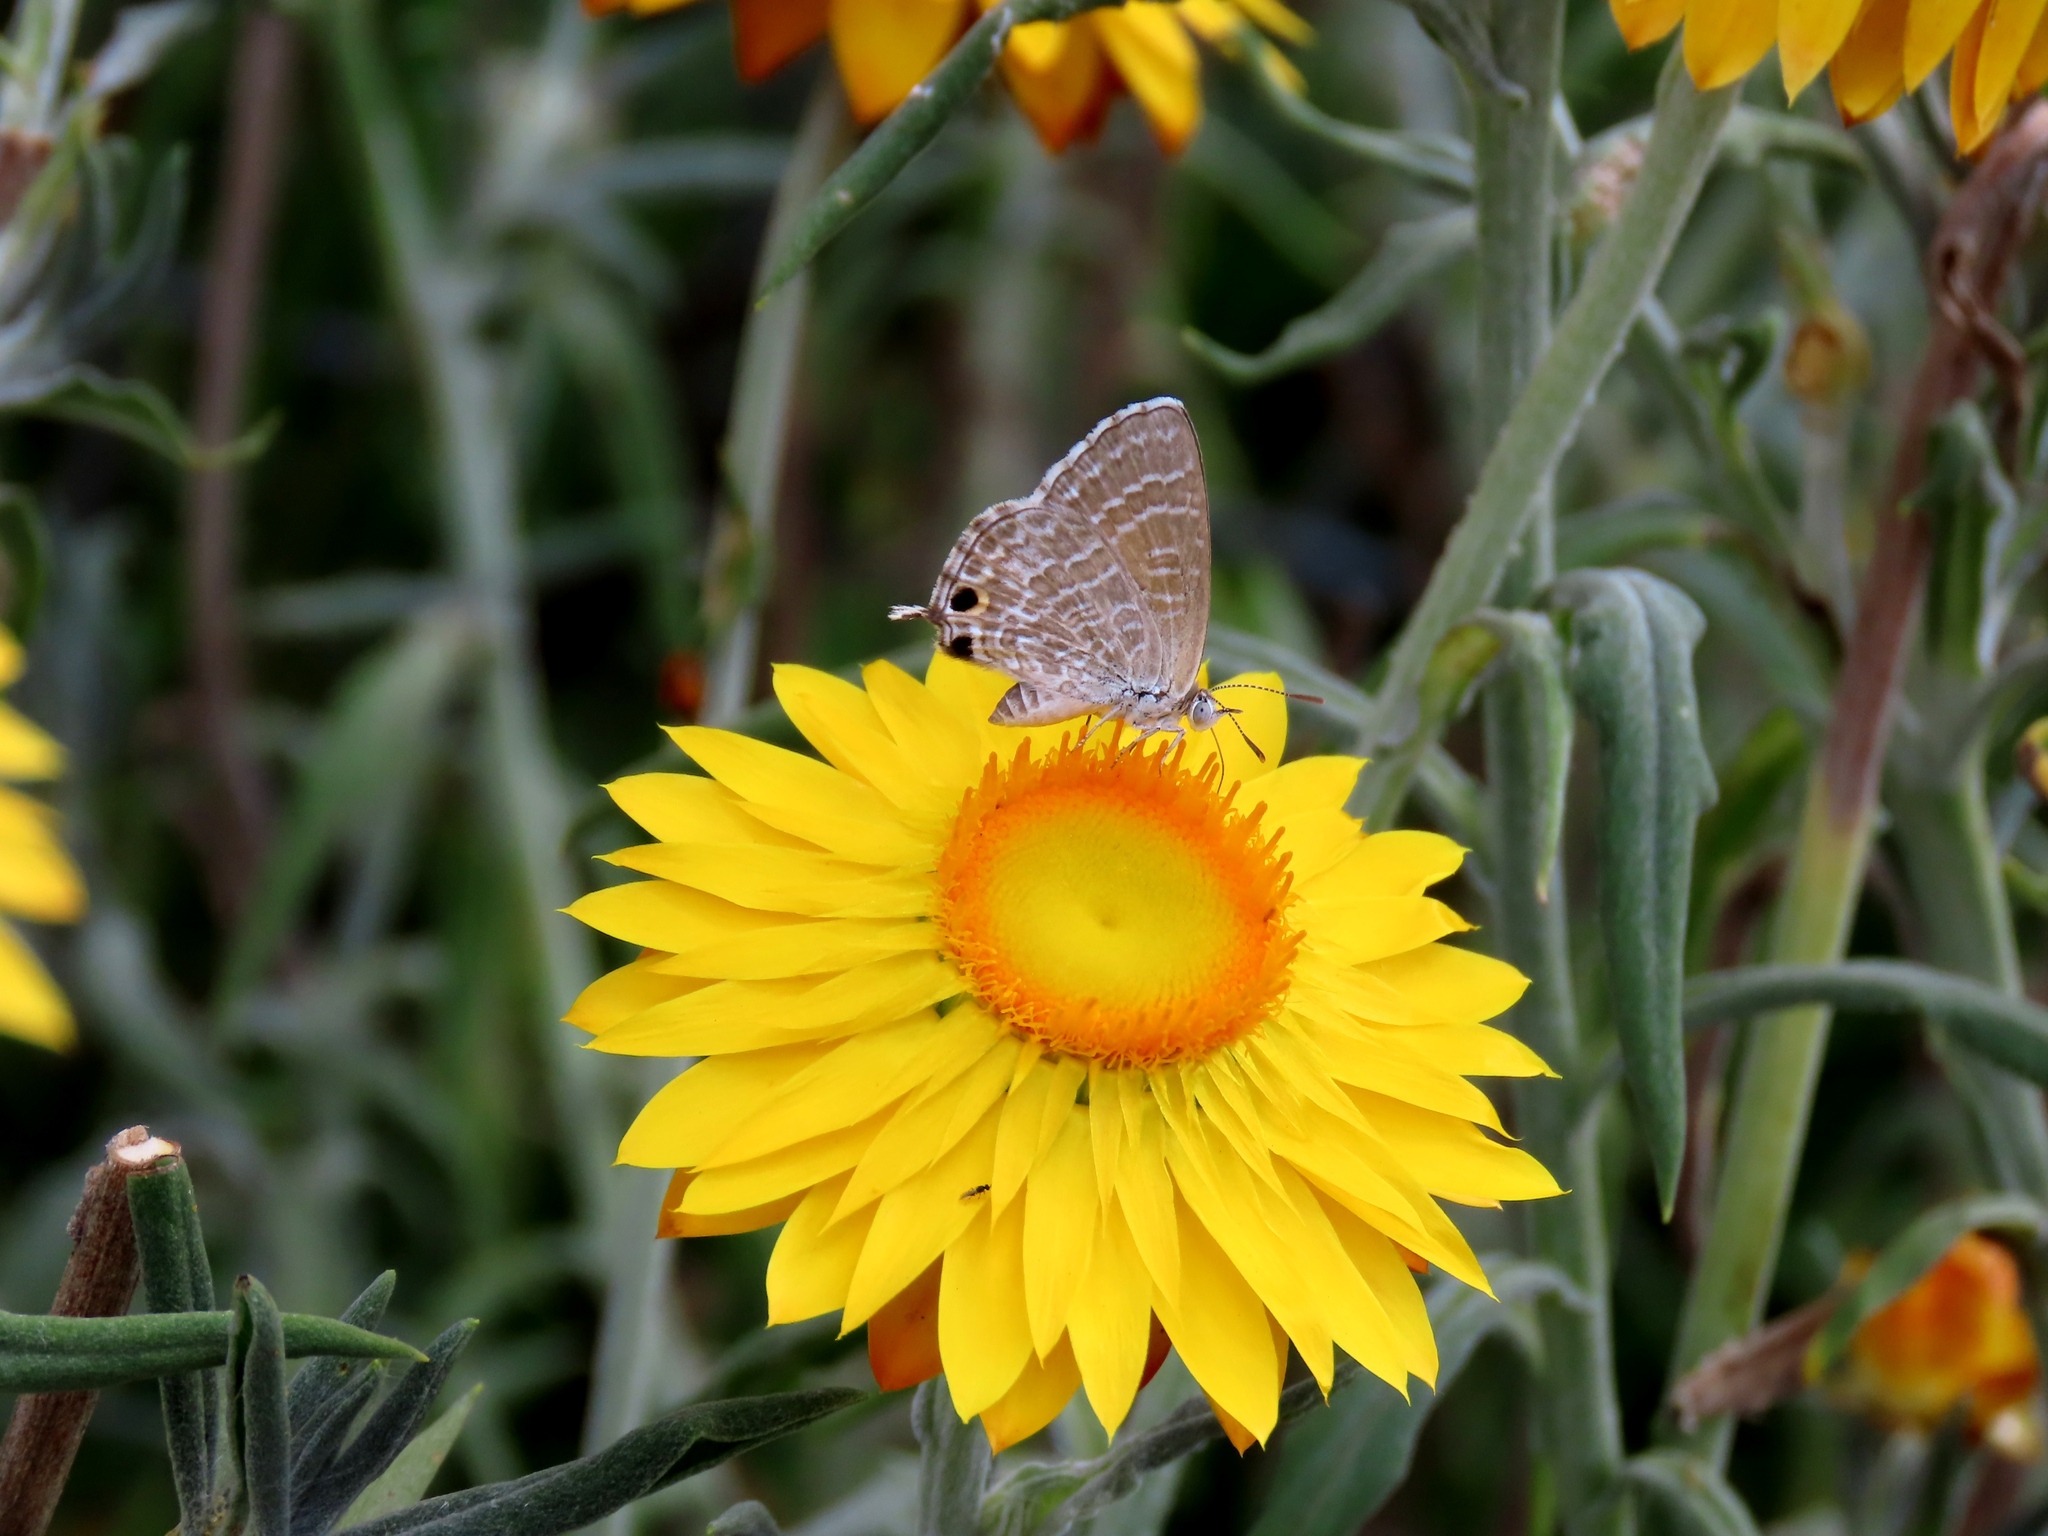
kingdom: Animalia
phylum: Arthropoda
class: Insecta
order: Lepidoptera
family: Lycaenidae
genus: Theclinesthes
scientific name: Theclinesthes miskini
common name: Wattle blue
